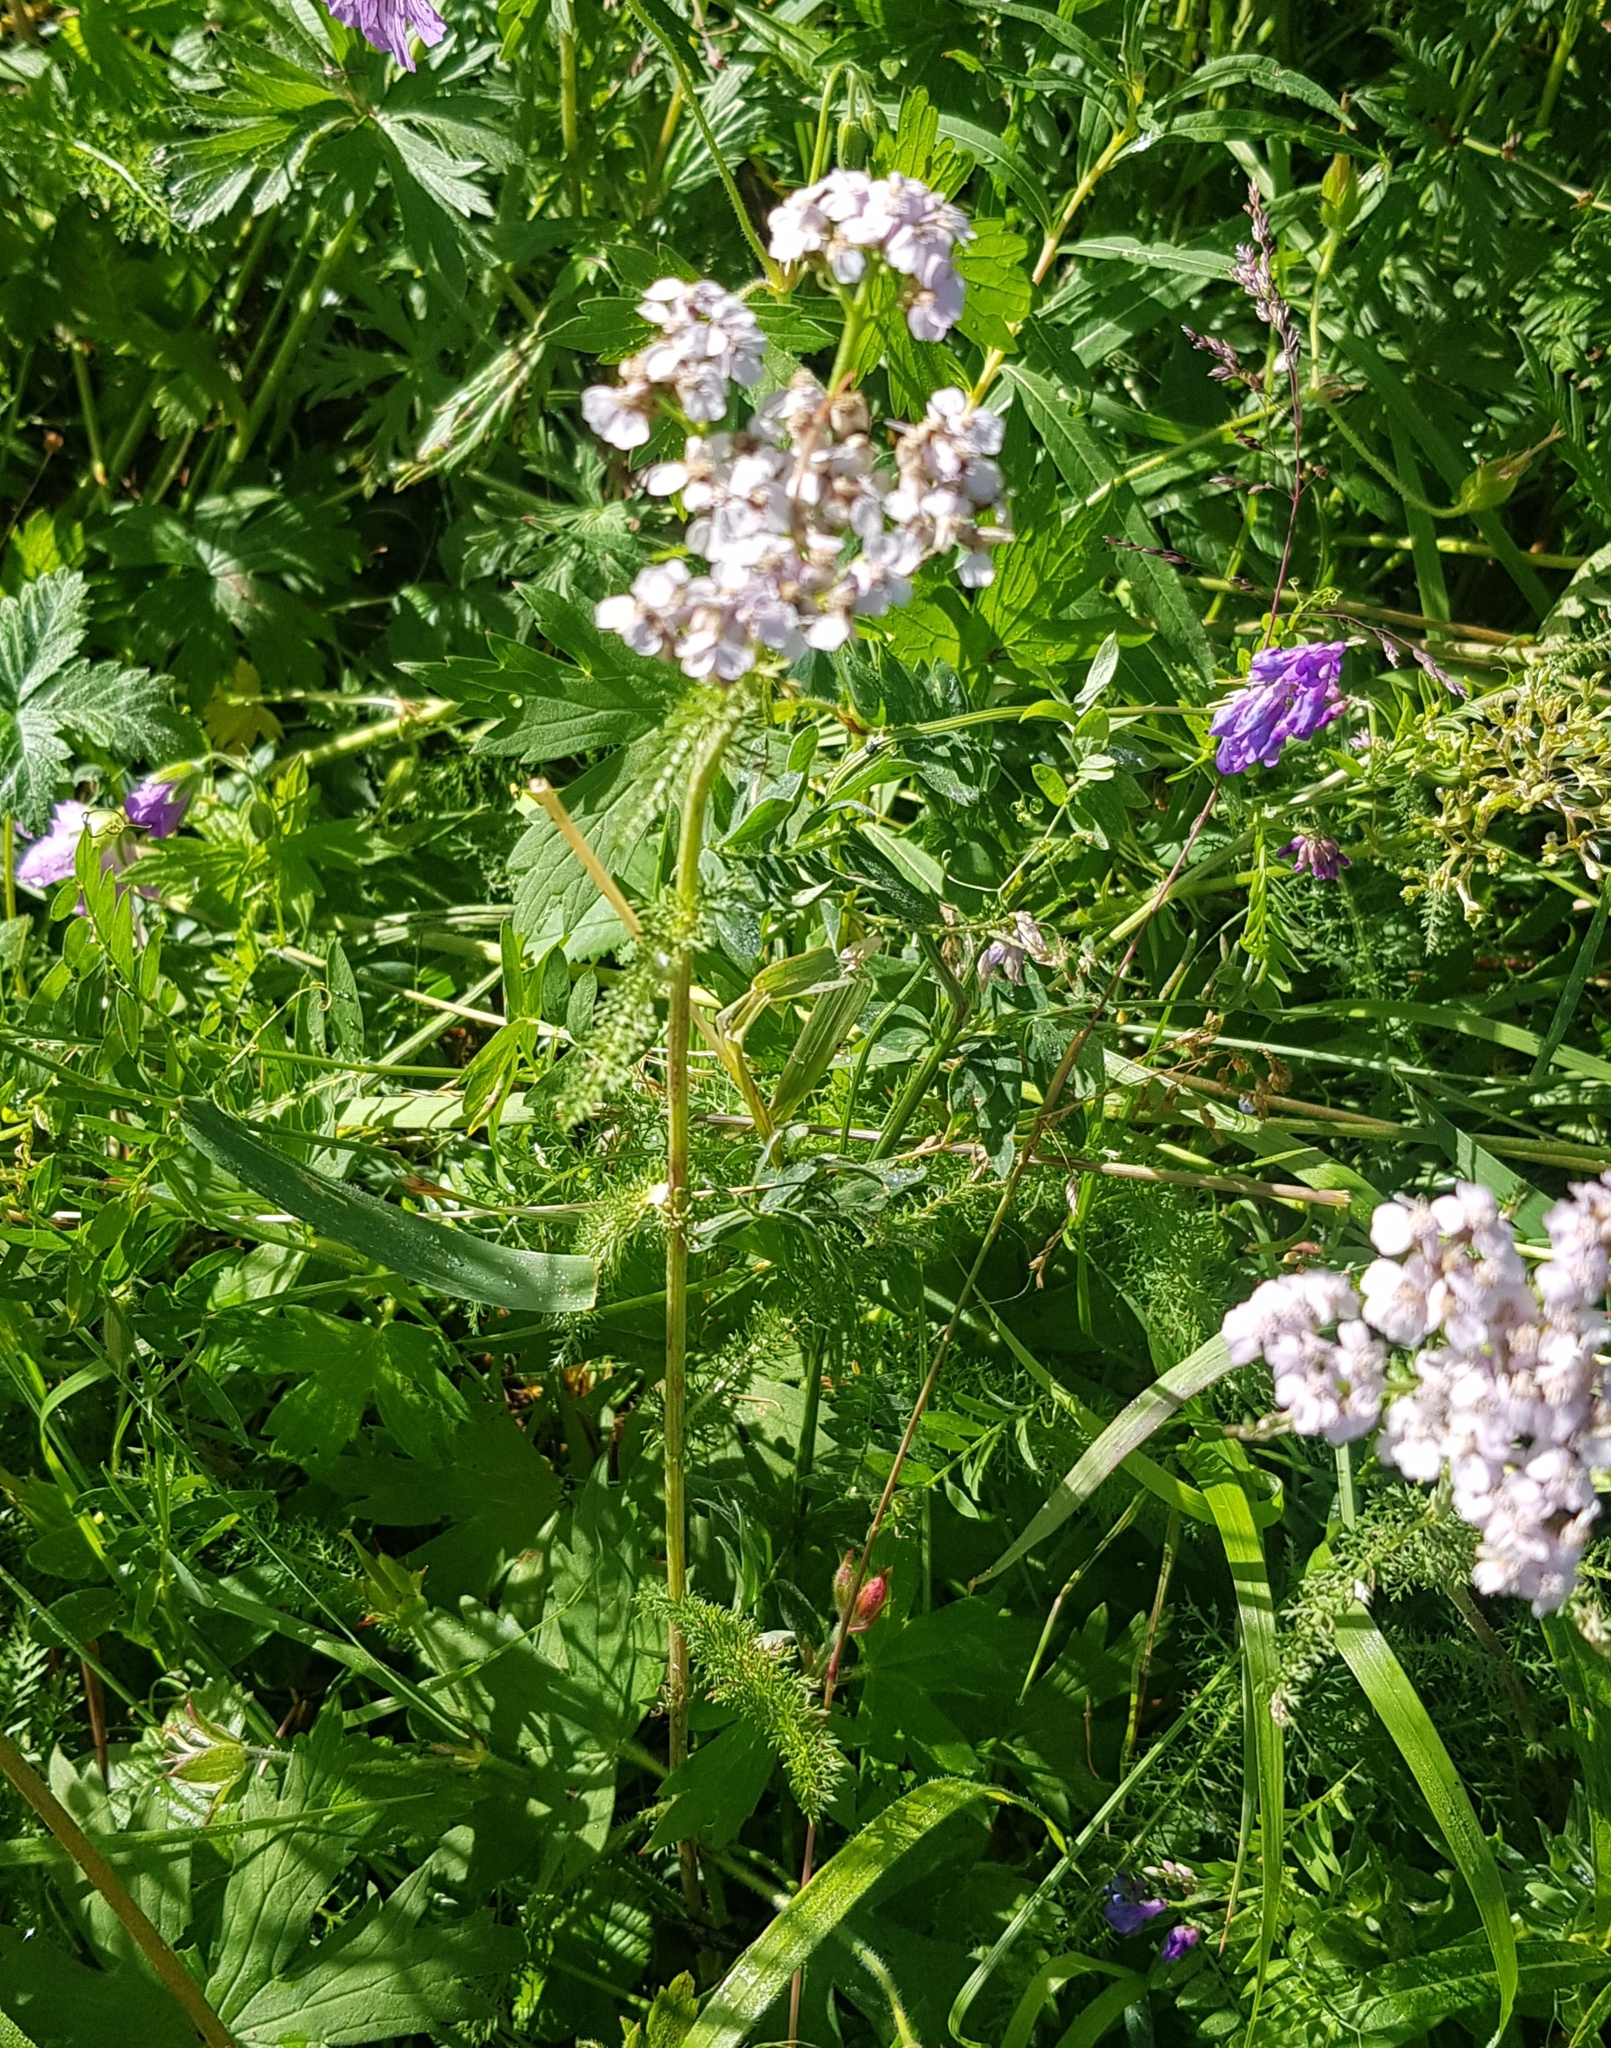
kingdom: Plantae
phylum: Tracheophyta
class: Magnoliopsida
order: Asterales
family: Asteraceae
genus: Achillea
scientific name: Achillea millefolium
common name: Yarrow
